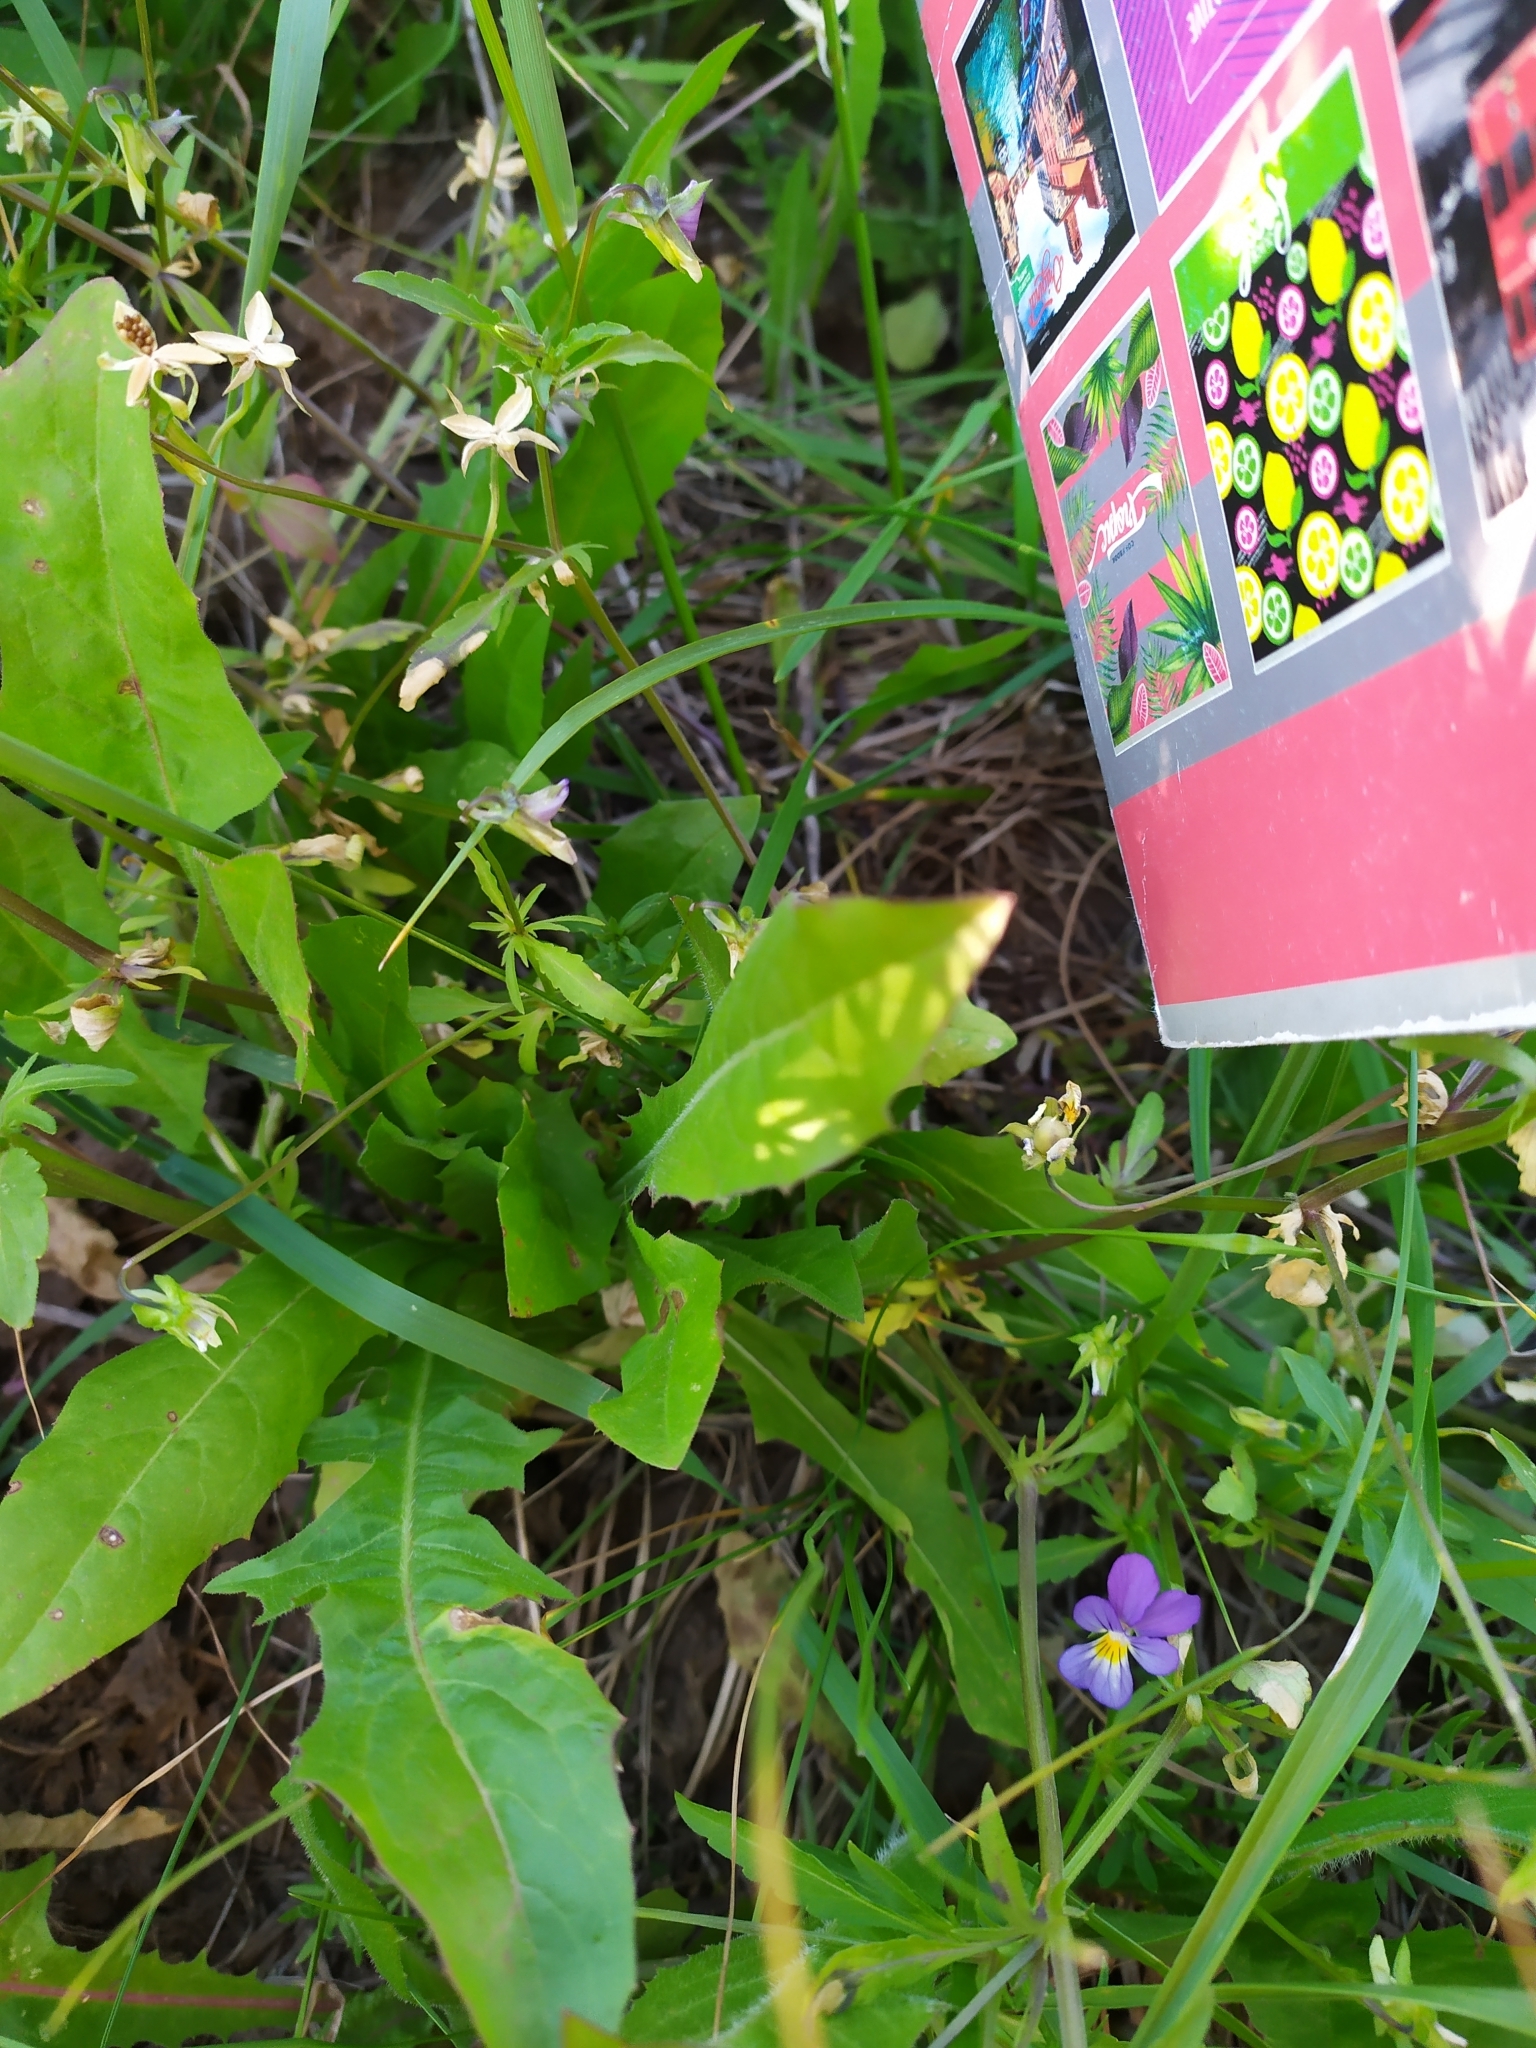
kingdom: Plantae
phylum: Tracheophyta
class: Magnoliopsida
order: Asterales
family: Asteraceae
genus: Taraxacum
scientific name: Taraxacum officinale
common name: Common dandelion
